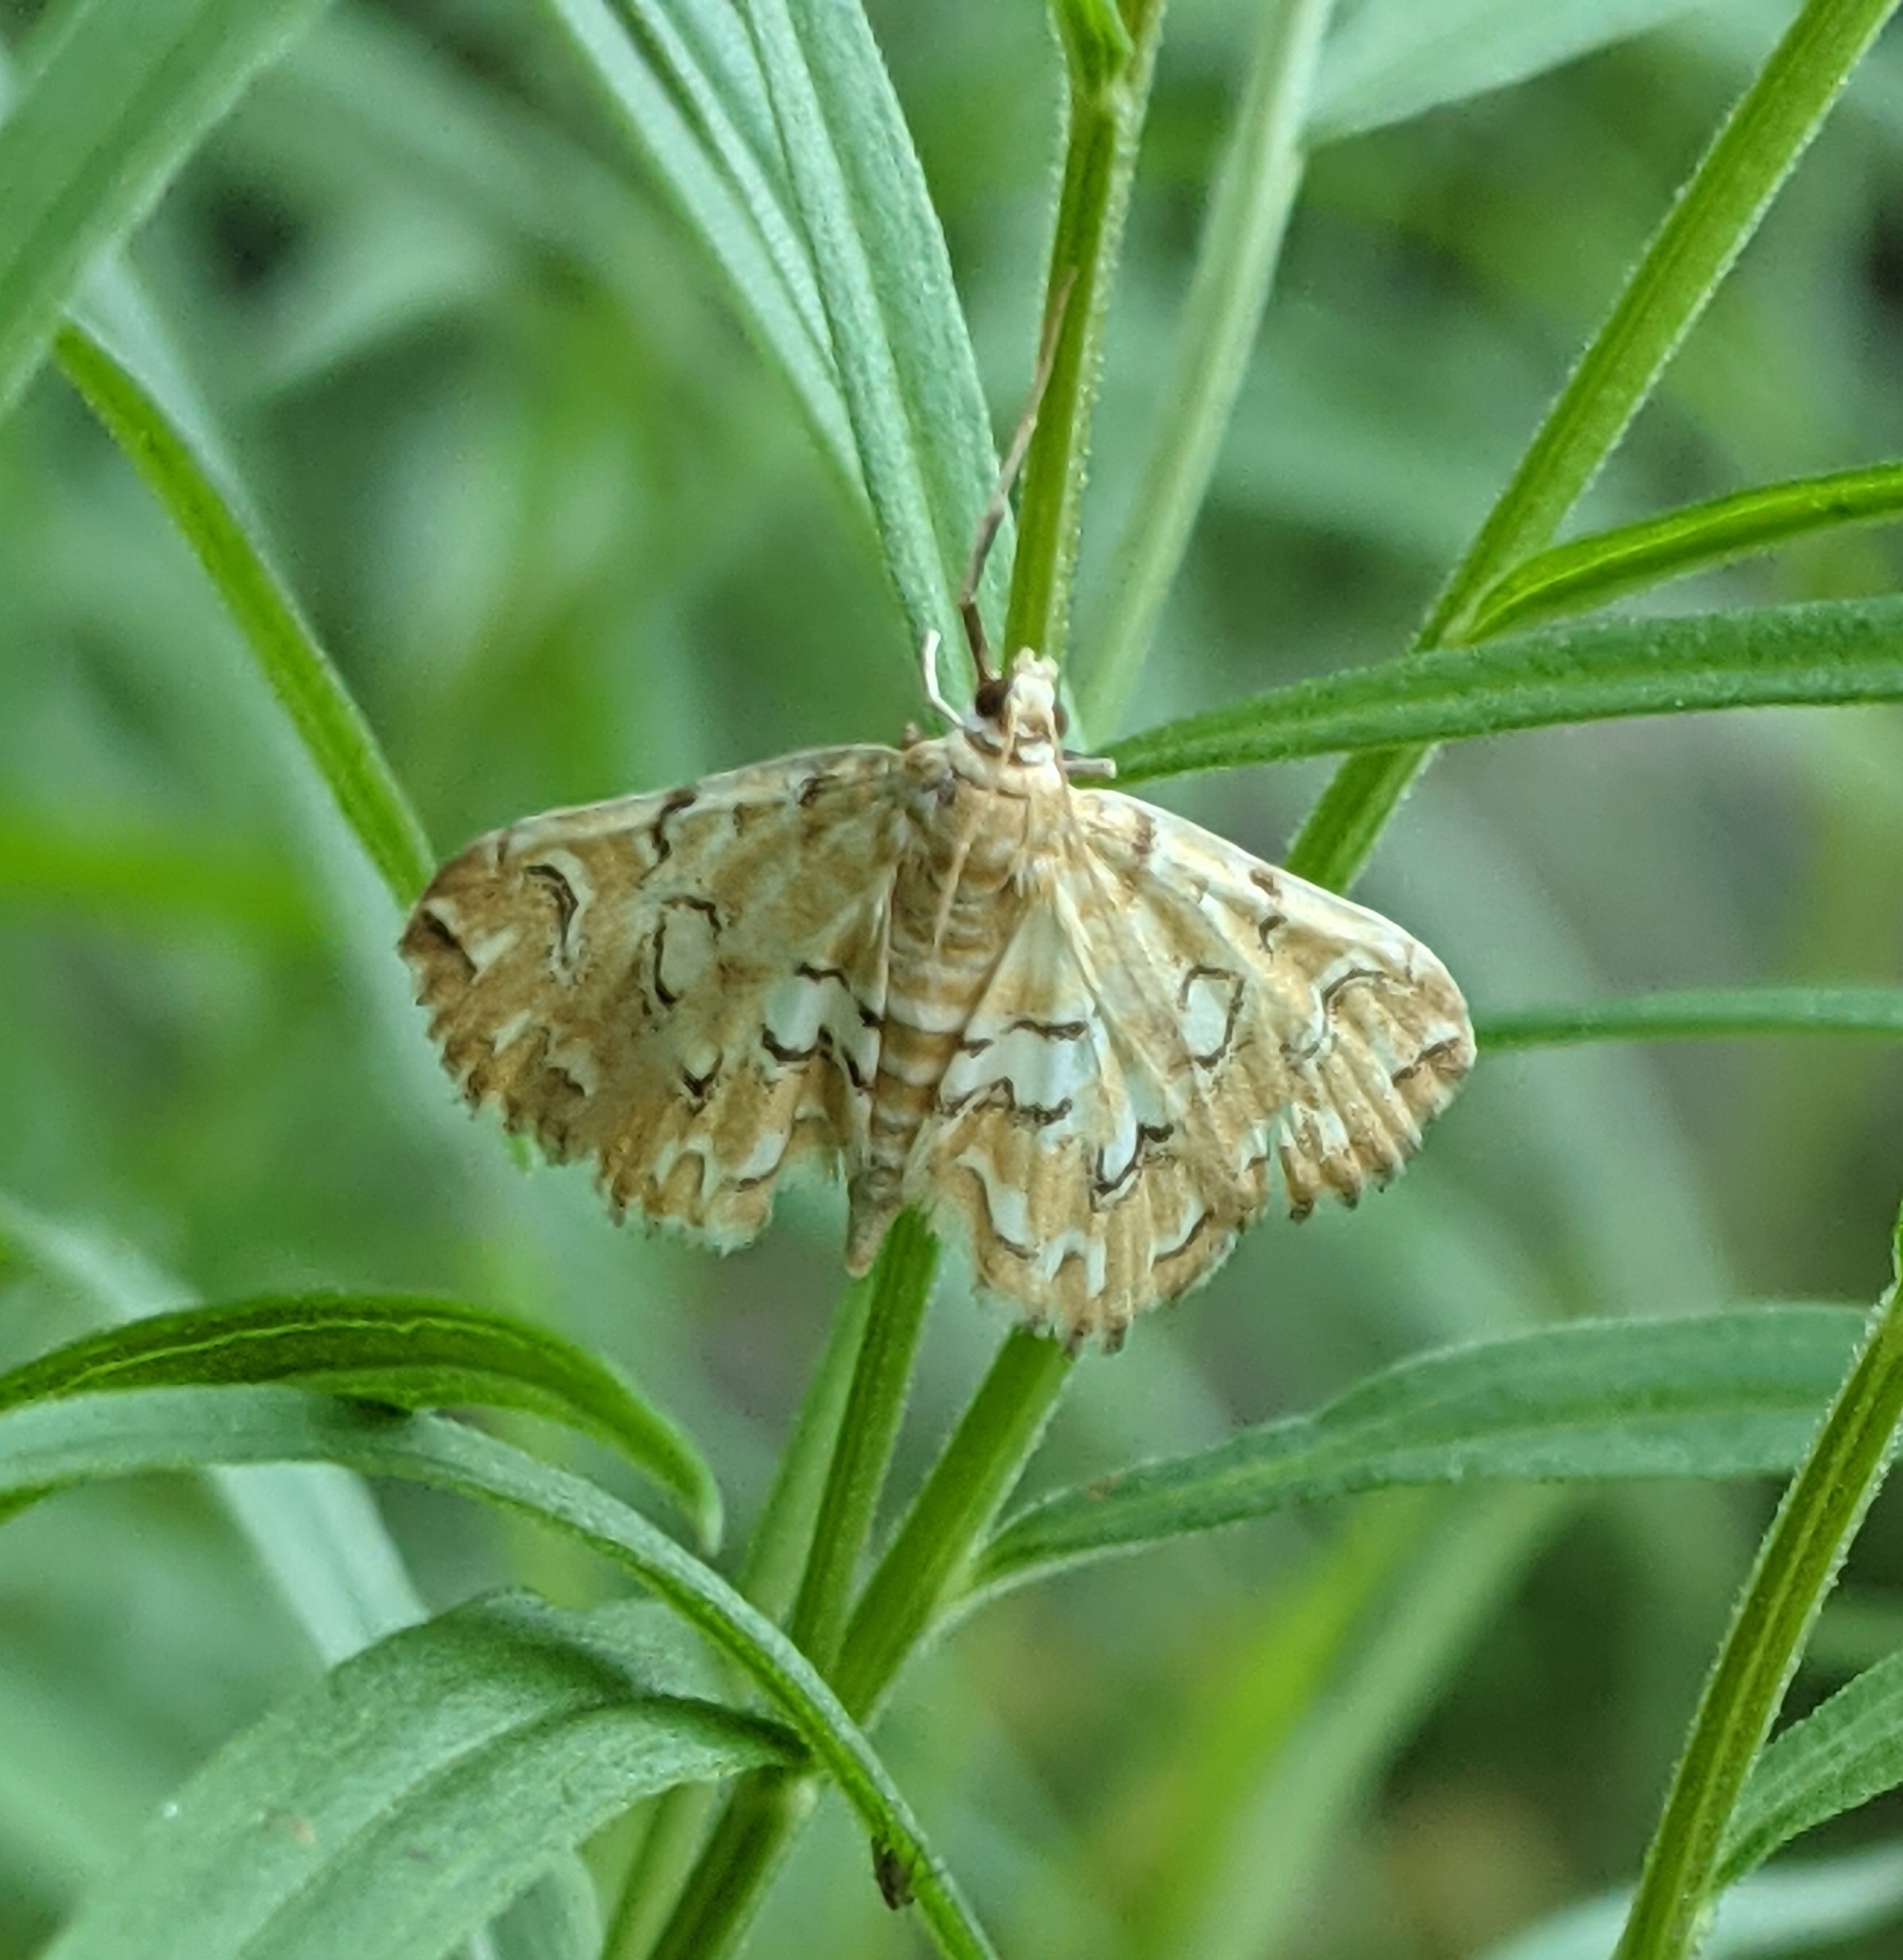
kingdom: Animalia
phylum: Arthropoda
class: Insecta
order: Lepidoptera
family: Crambidae
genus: Elophila
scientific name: Elophila icciusalis
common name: Pondside pyralid moth
